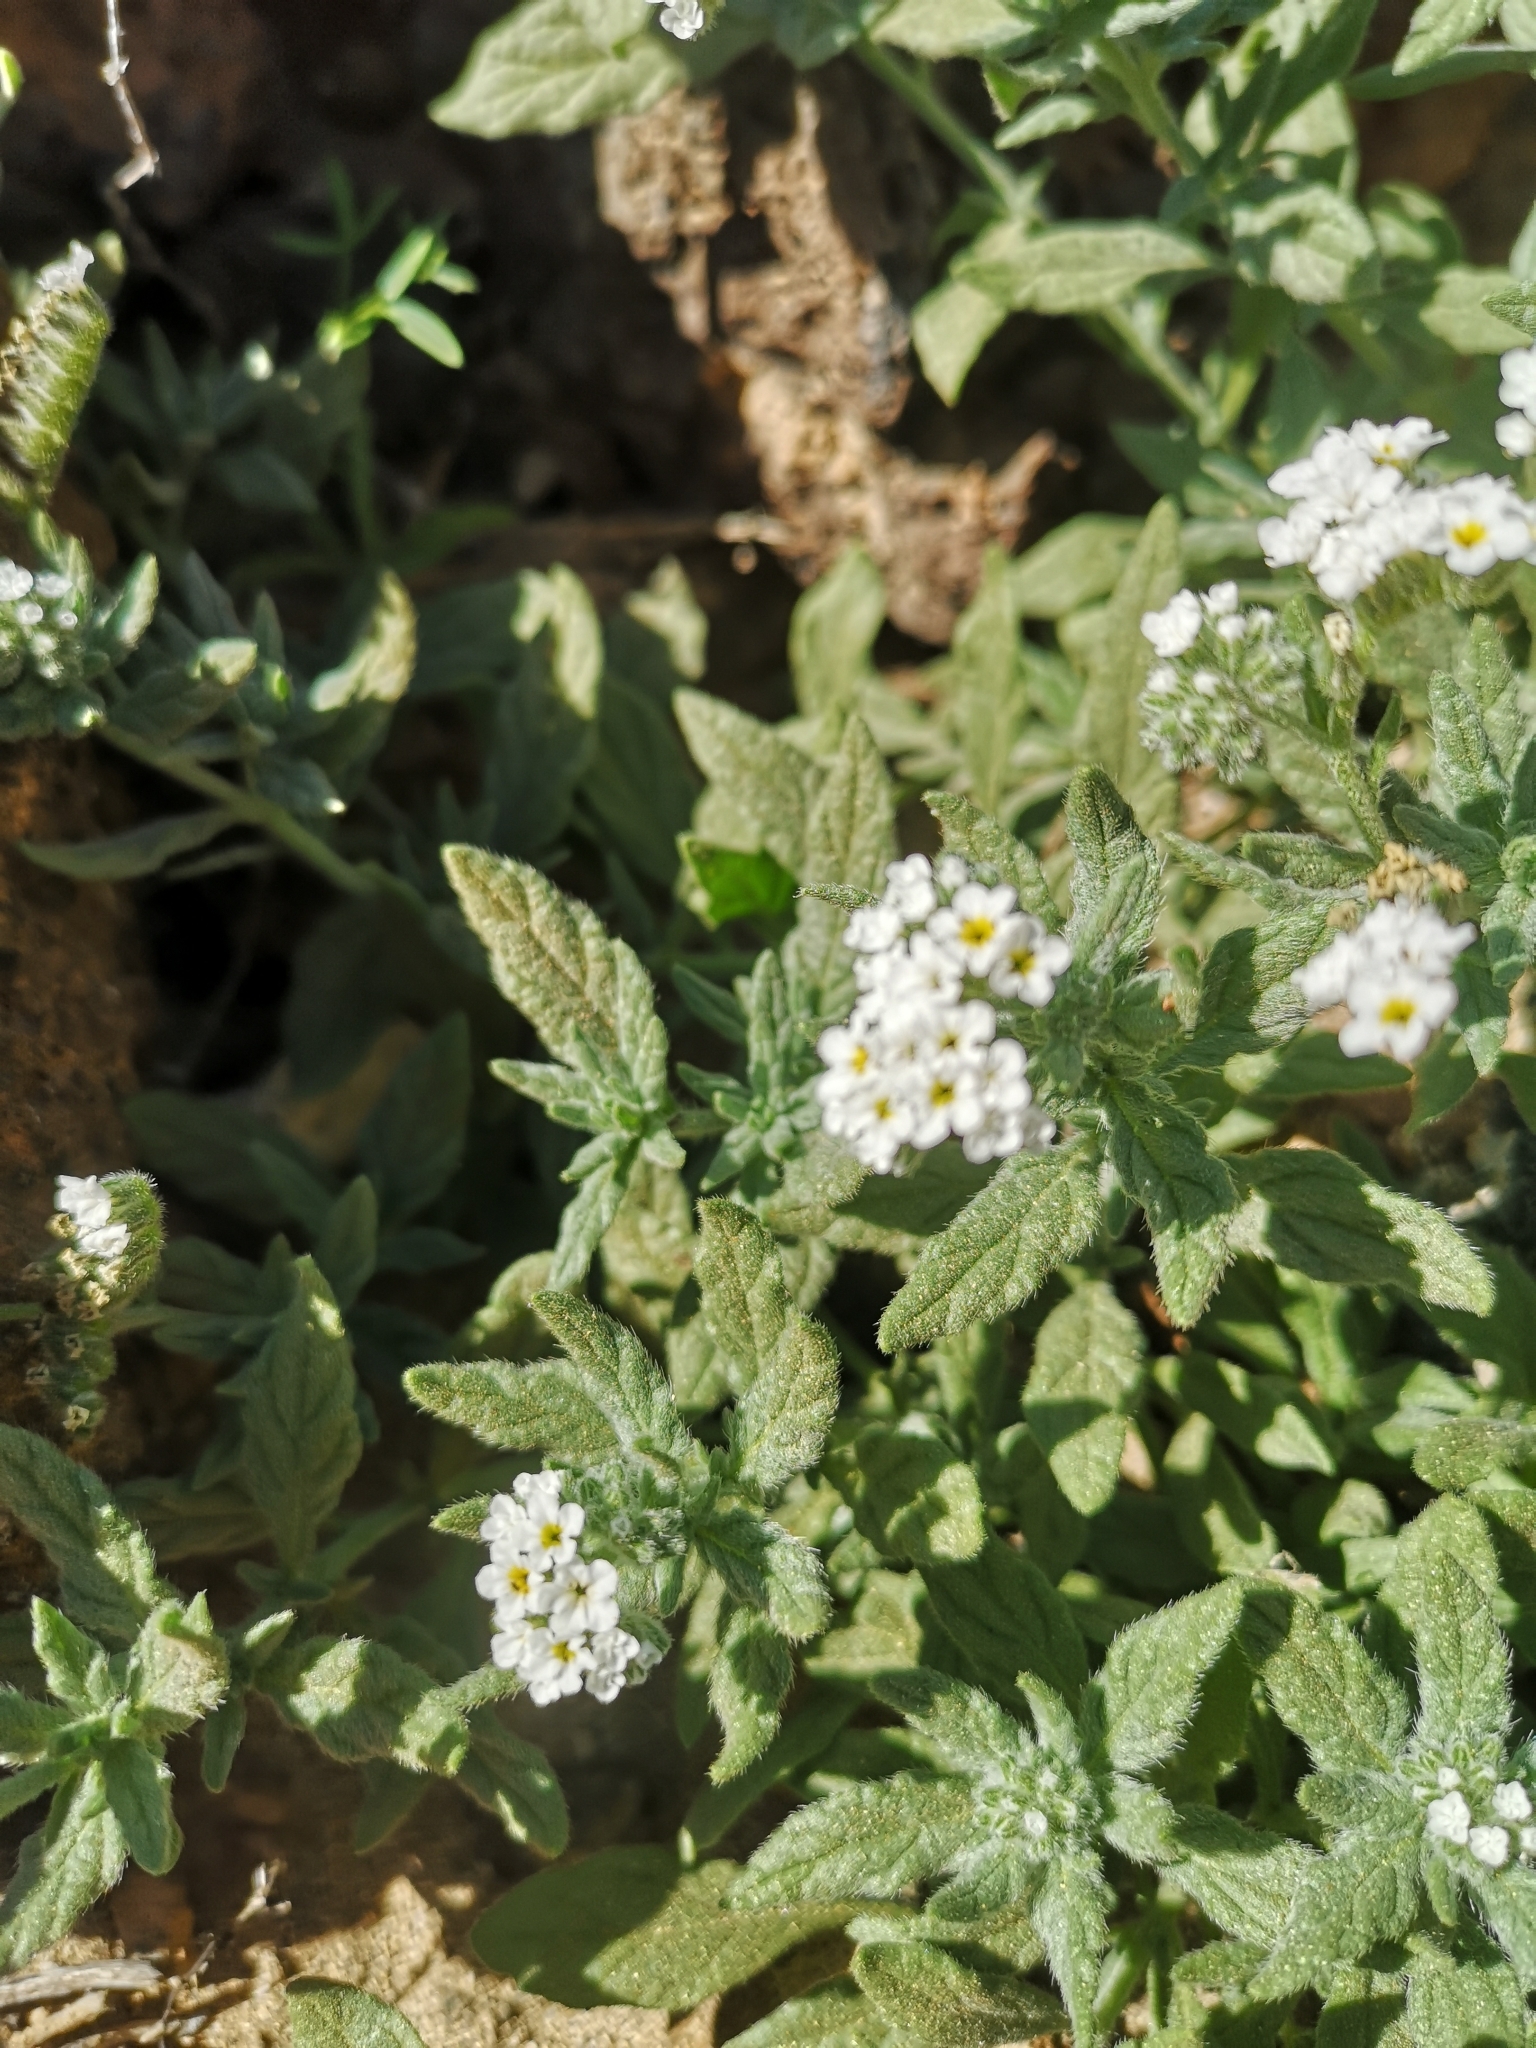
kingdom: Plantae
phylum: Tracheophyta
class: Magnoliopsida
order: Boraginales
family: Heliotropiaceae
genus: Heliotropium
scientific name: Heliotropium ramosissimum
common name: Wavy heliotrope
